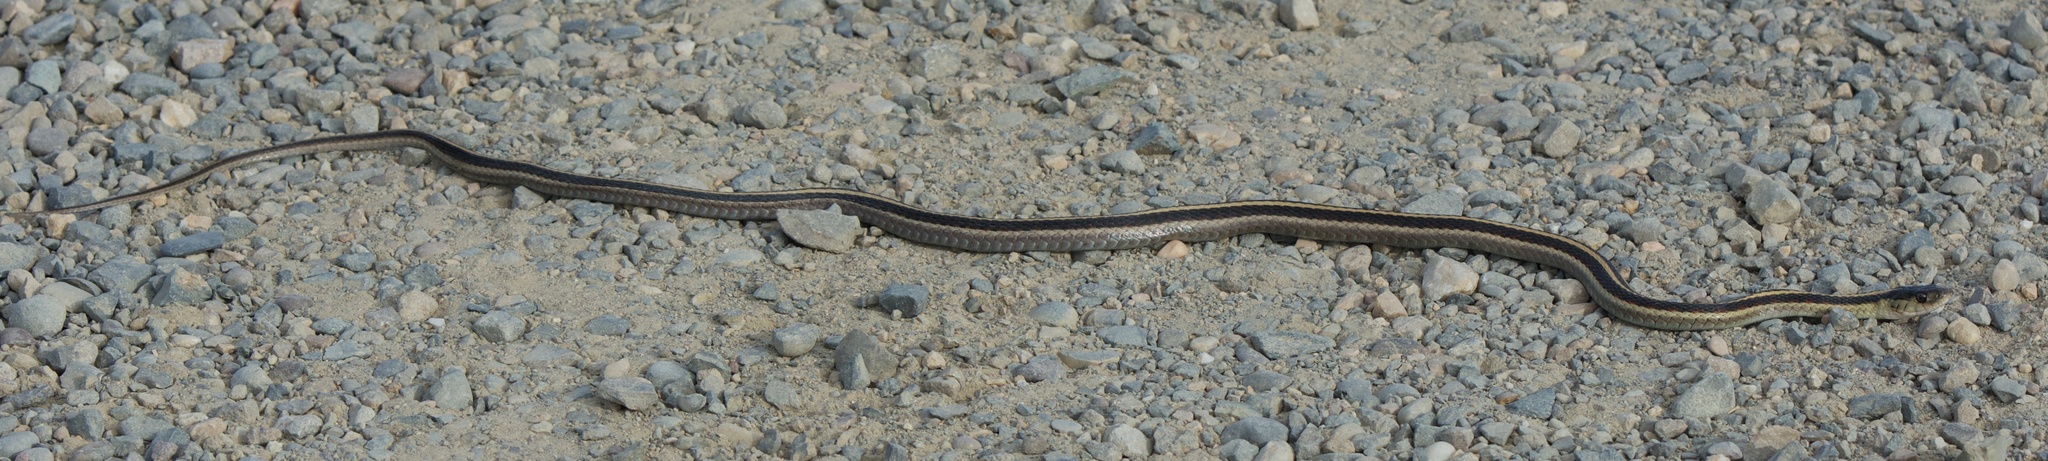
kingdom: Animalia
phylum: Chordata
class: Squamata
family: Colubridae
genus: Thamnophis
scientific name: Thamnophis sirtalis
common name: Common garter snake
